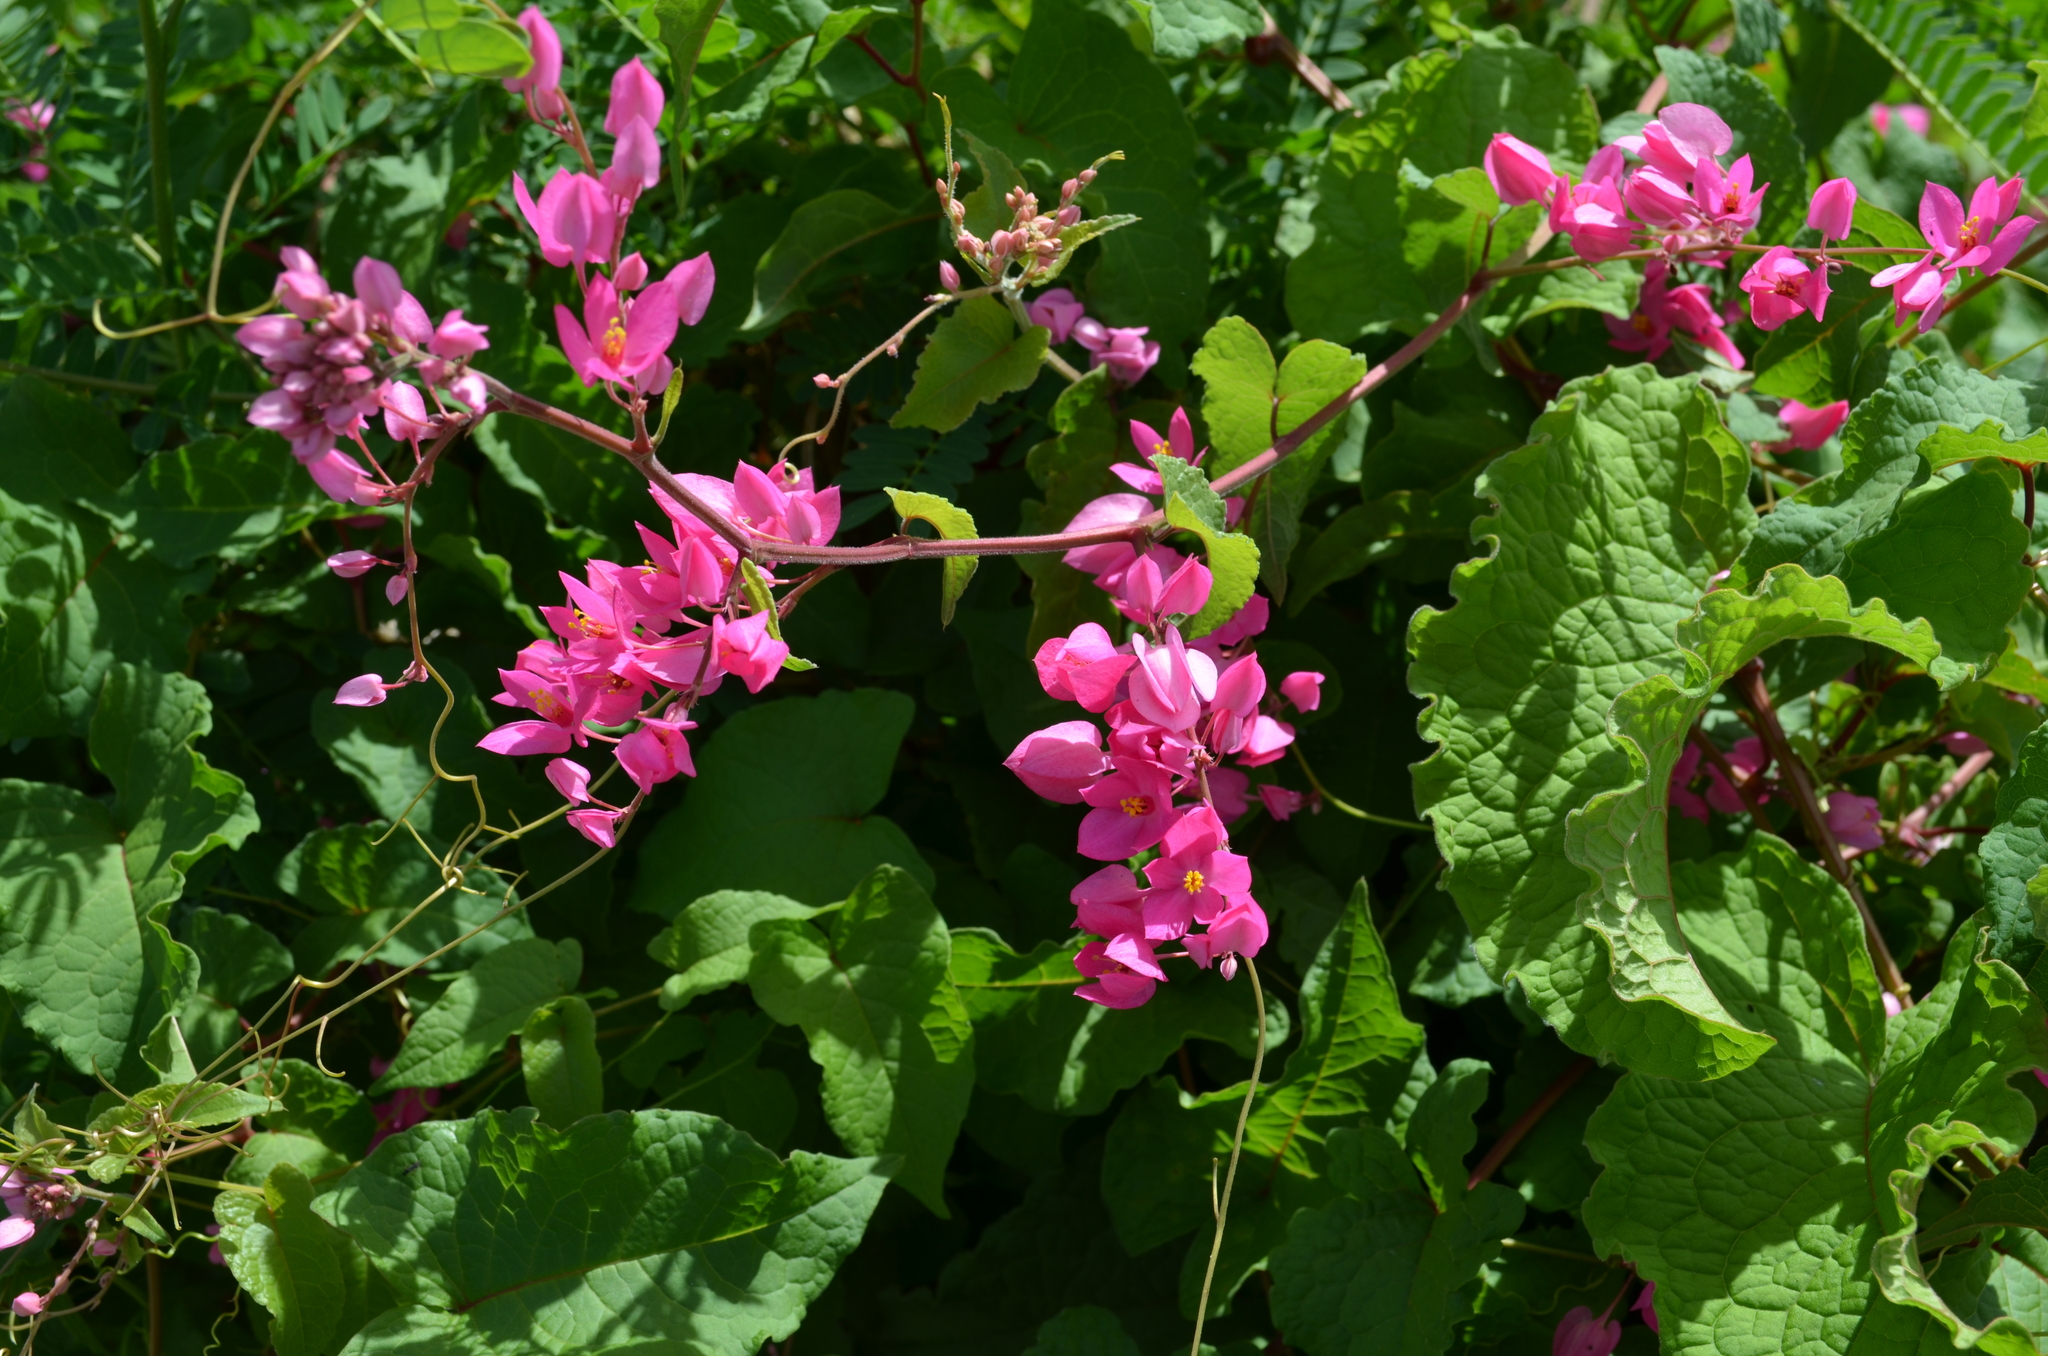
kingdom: Plantae
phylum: Tracheophyta
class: Magnoliopsida
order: Caryophyllales
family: Polygonaceae
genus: Antigonon
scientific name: Antigonon leptopus
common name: Coral vine
